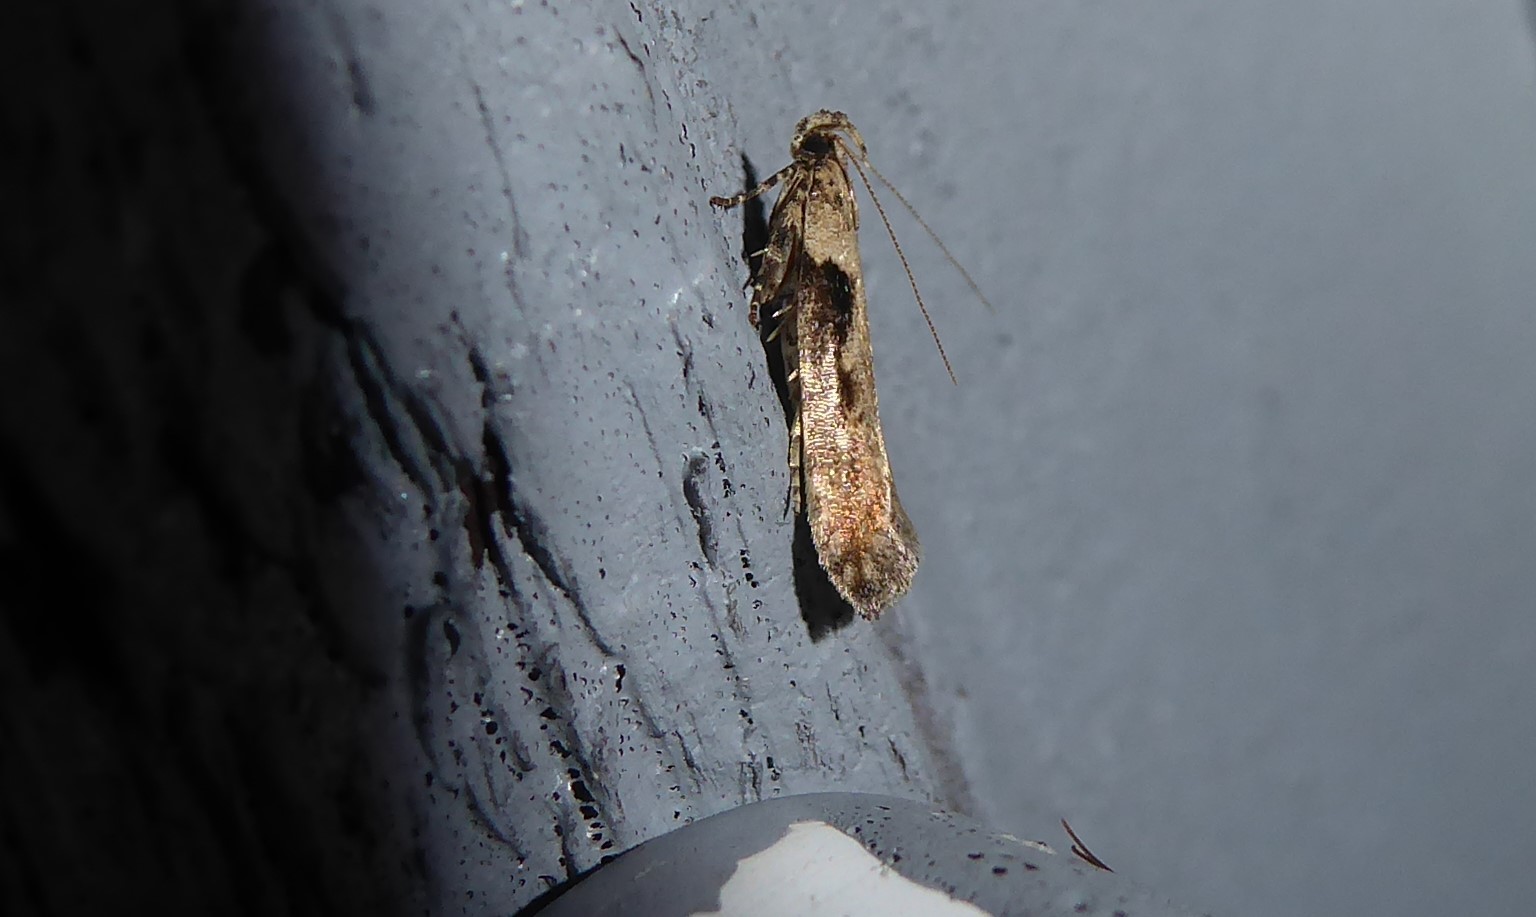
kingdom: Animalia
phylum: Arthropoda
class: Insecta
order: Lepidoptera
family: Gelechiidae
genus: Symmetrischema
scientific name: Symmetrischema tangolias
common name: Moth
